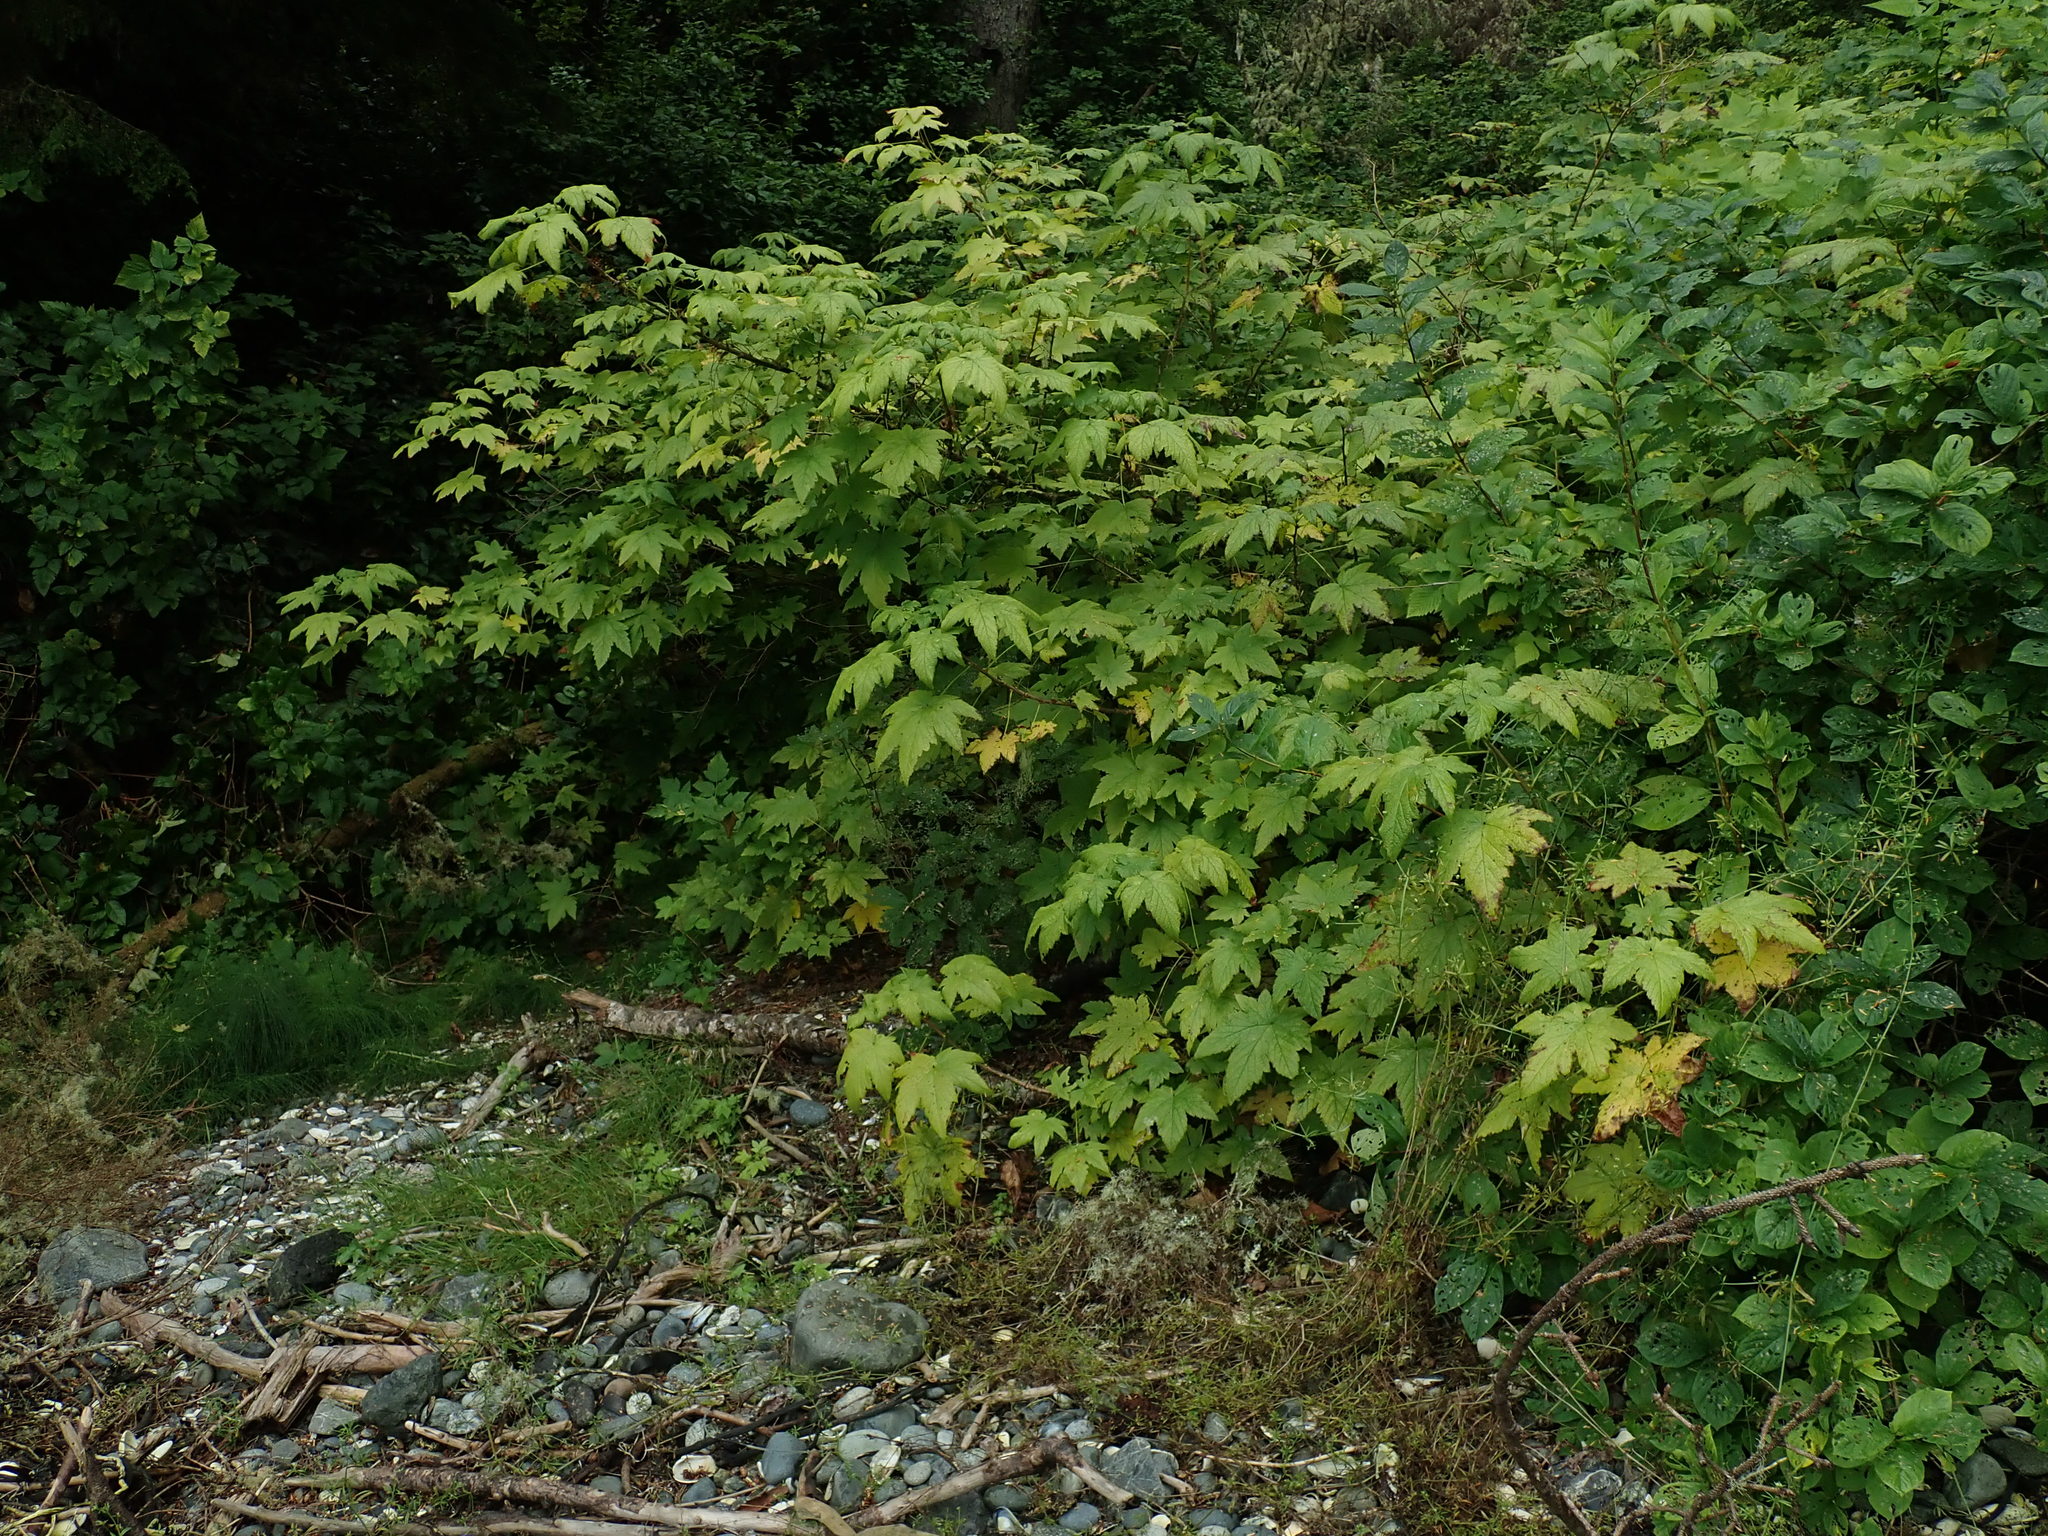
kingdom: Plantae
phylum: Tracheophyta
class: Magnoliopsida
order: Saxifragales
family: Grossulariaceae
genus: Ribes
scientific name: Ribes bracteosum
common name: California black currant
